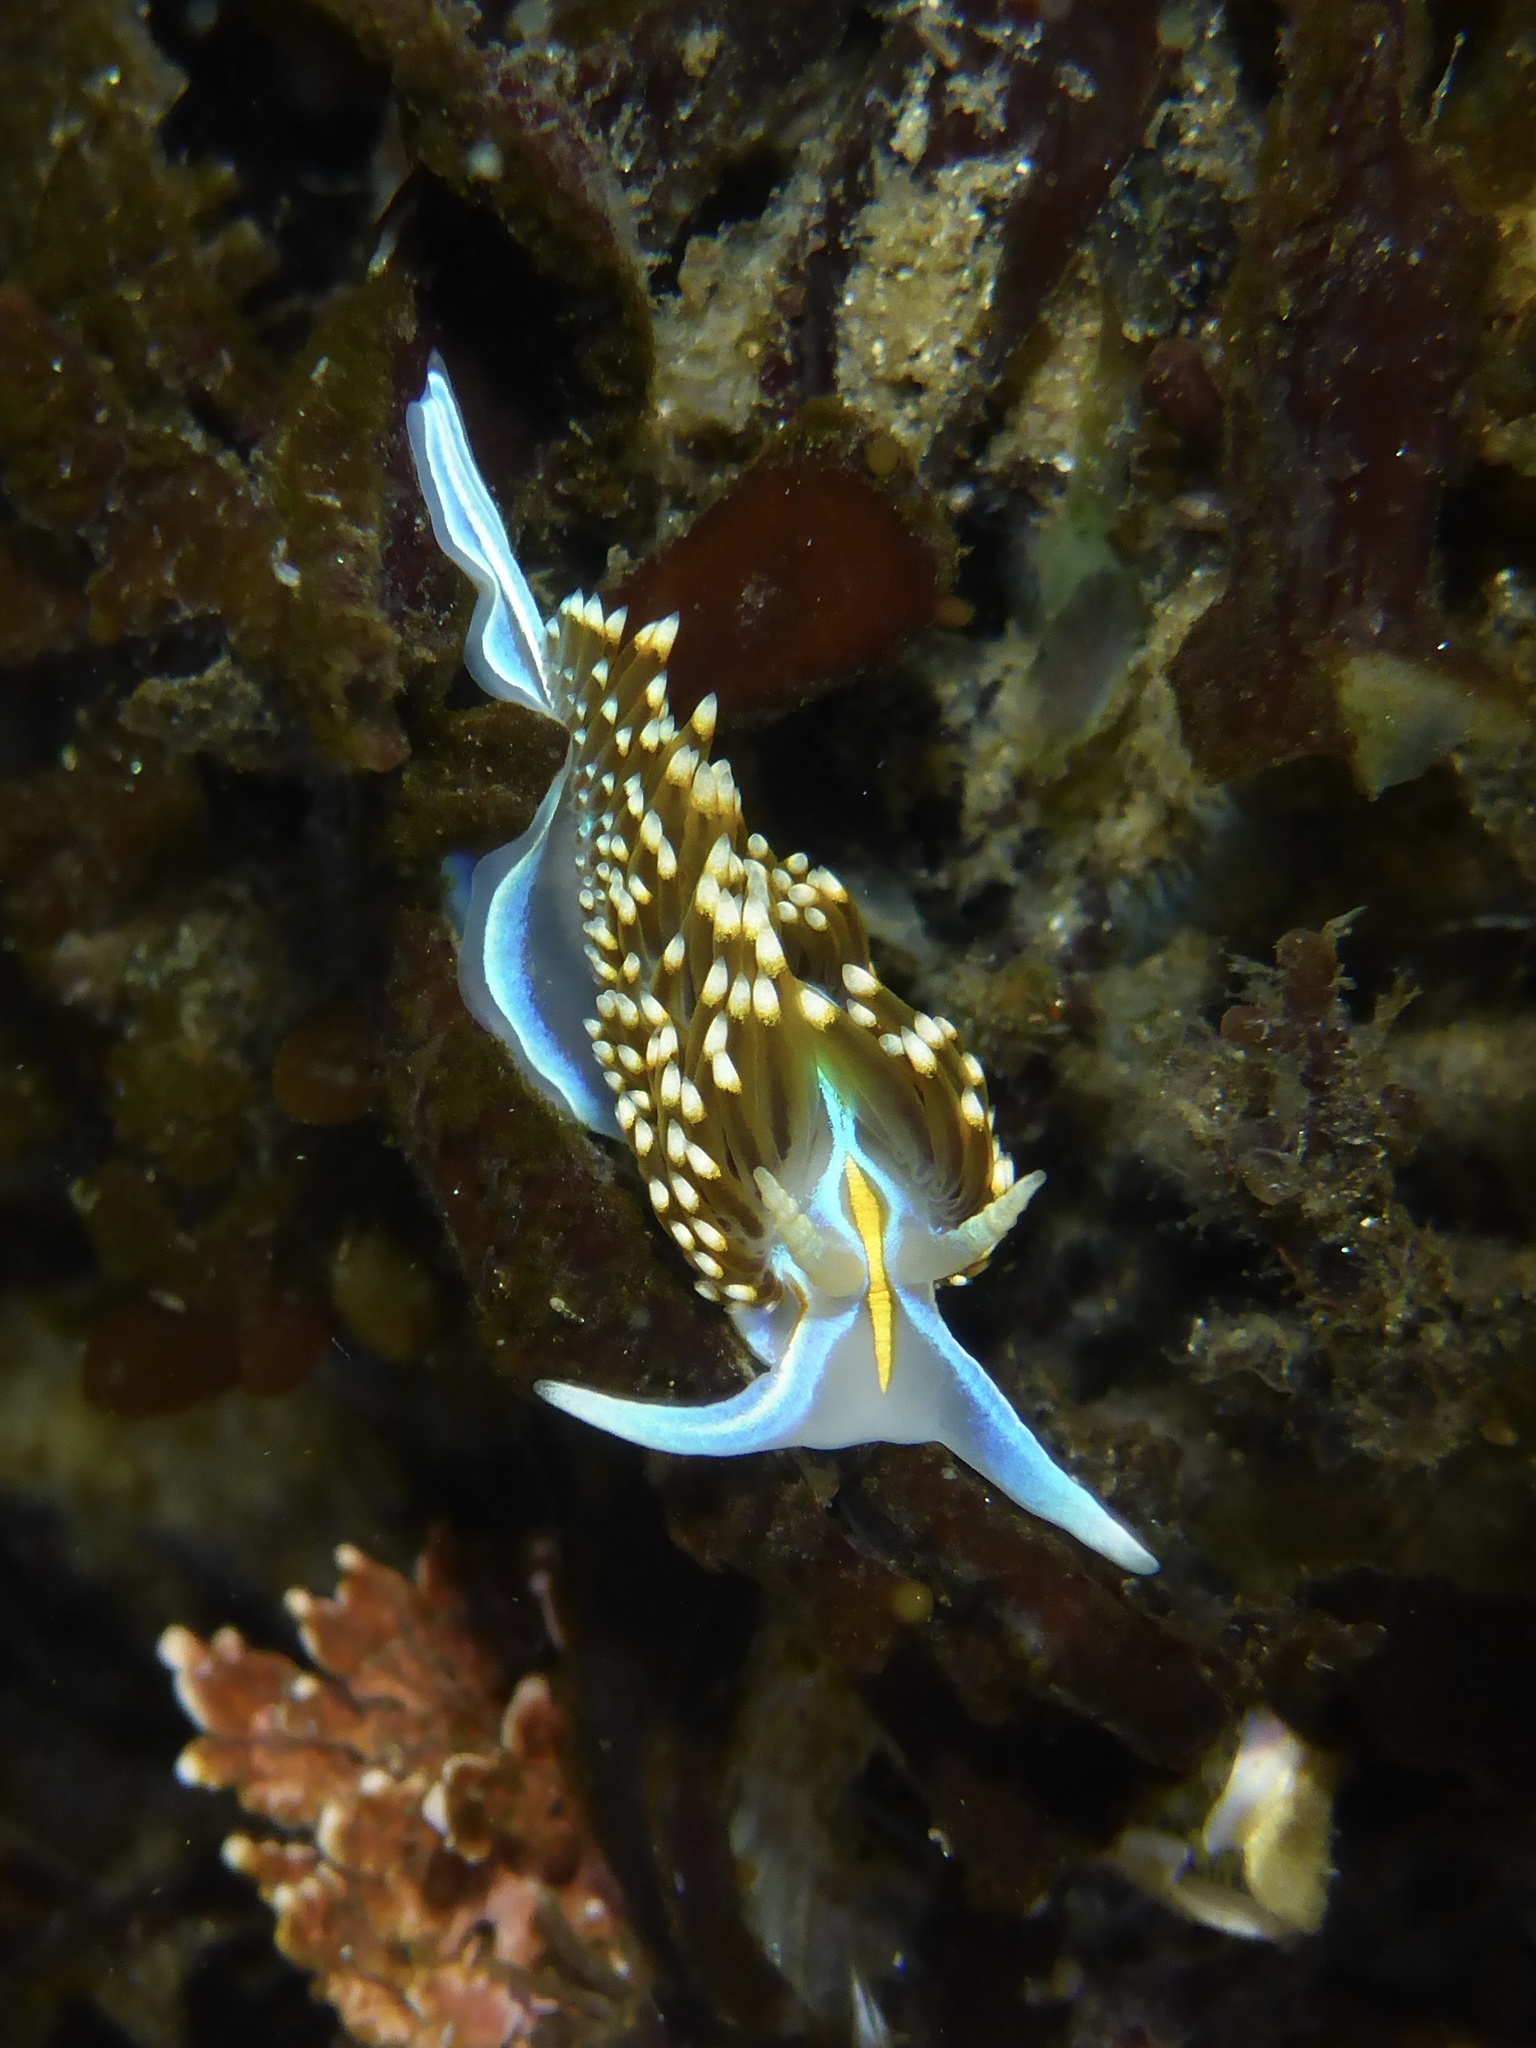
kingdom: Animalia
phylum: Mollusca
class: Gastropoda
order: Nudibranchia
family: Myrrhinidae
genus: Hermissenda
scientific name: Hermissenda opalescens
